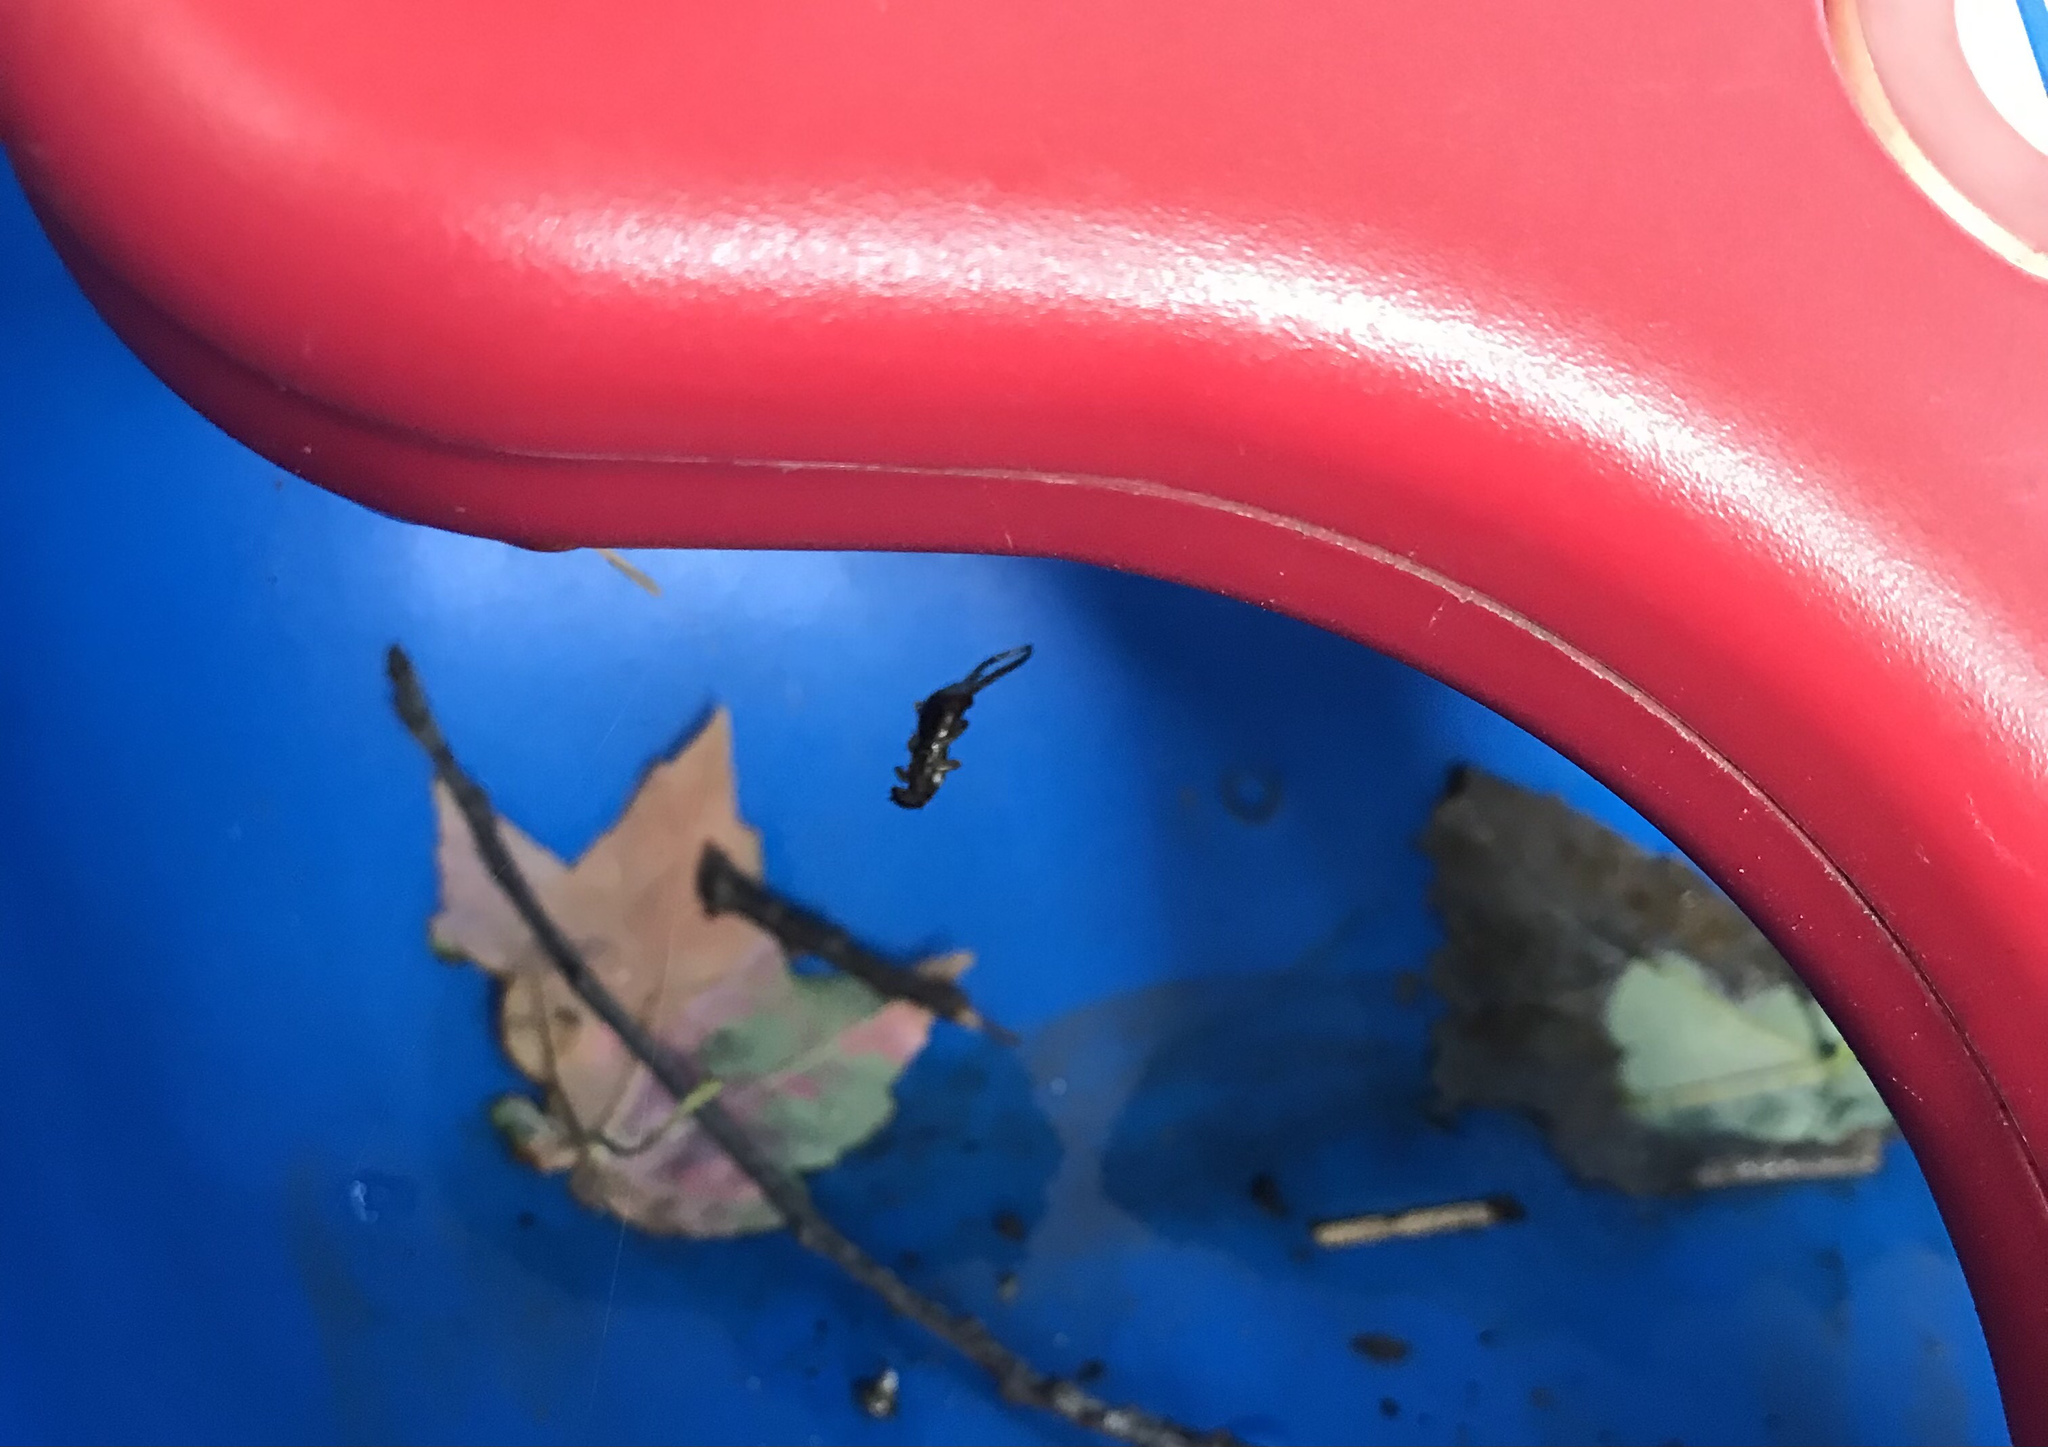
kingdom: Animalia
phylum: Arthropoda
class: Insecta
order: Dermaptera
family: Forficulidae
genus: Forficula
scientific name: Forficula
